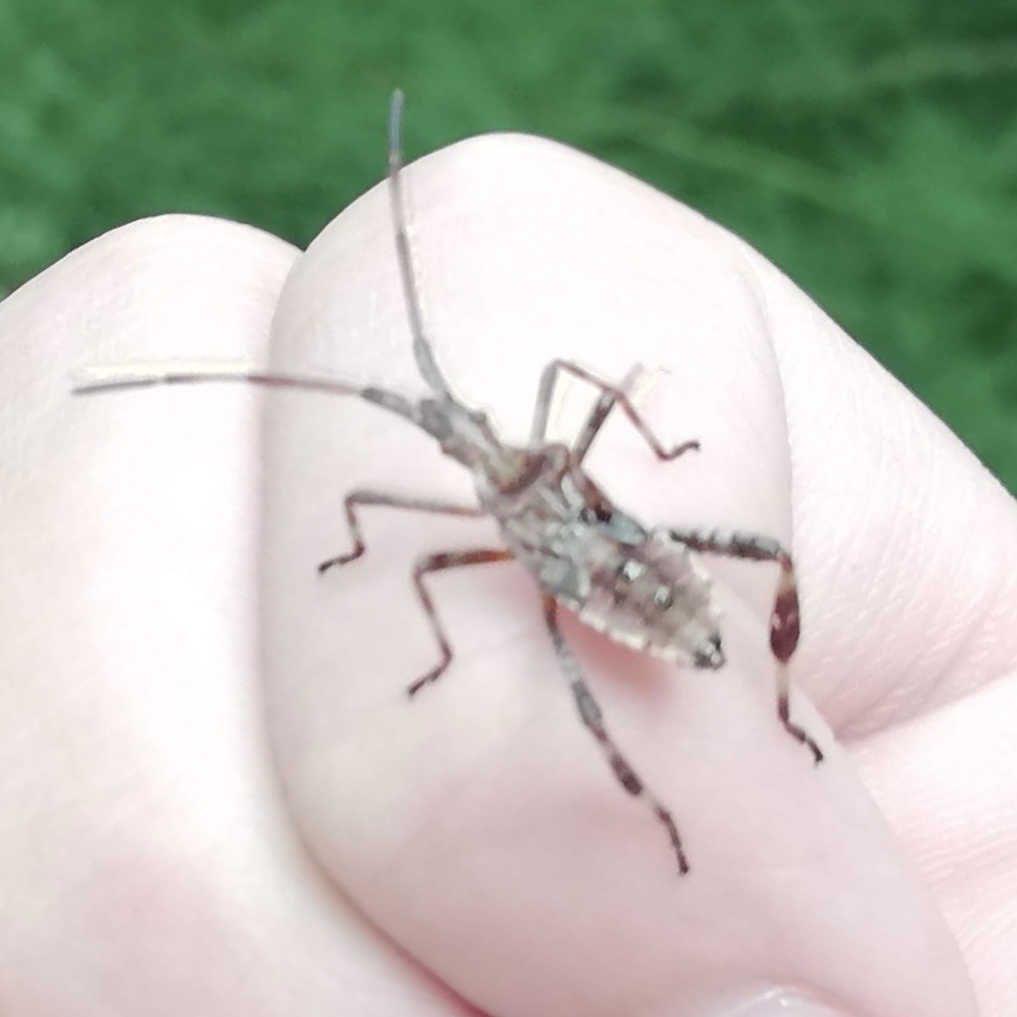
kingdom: Animalia
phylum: Arthropoda
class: Insecta
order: Hemiptera
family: Coreidae
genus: Leptoglossus
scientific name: Leptoglossus occidentalis
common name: Western conifer-seed bug
